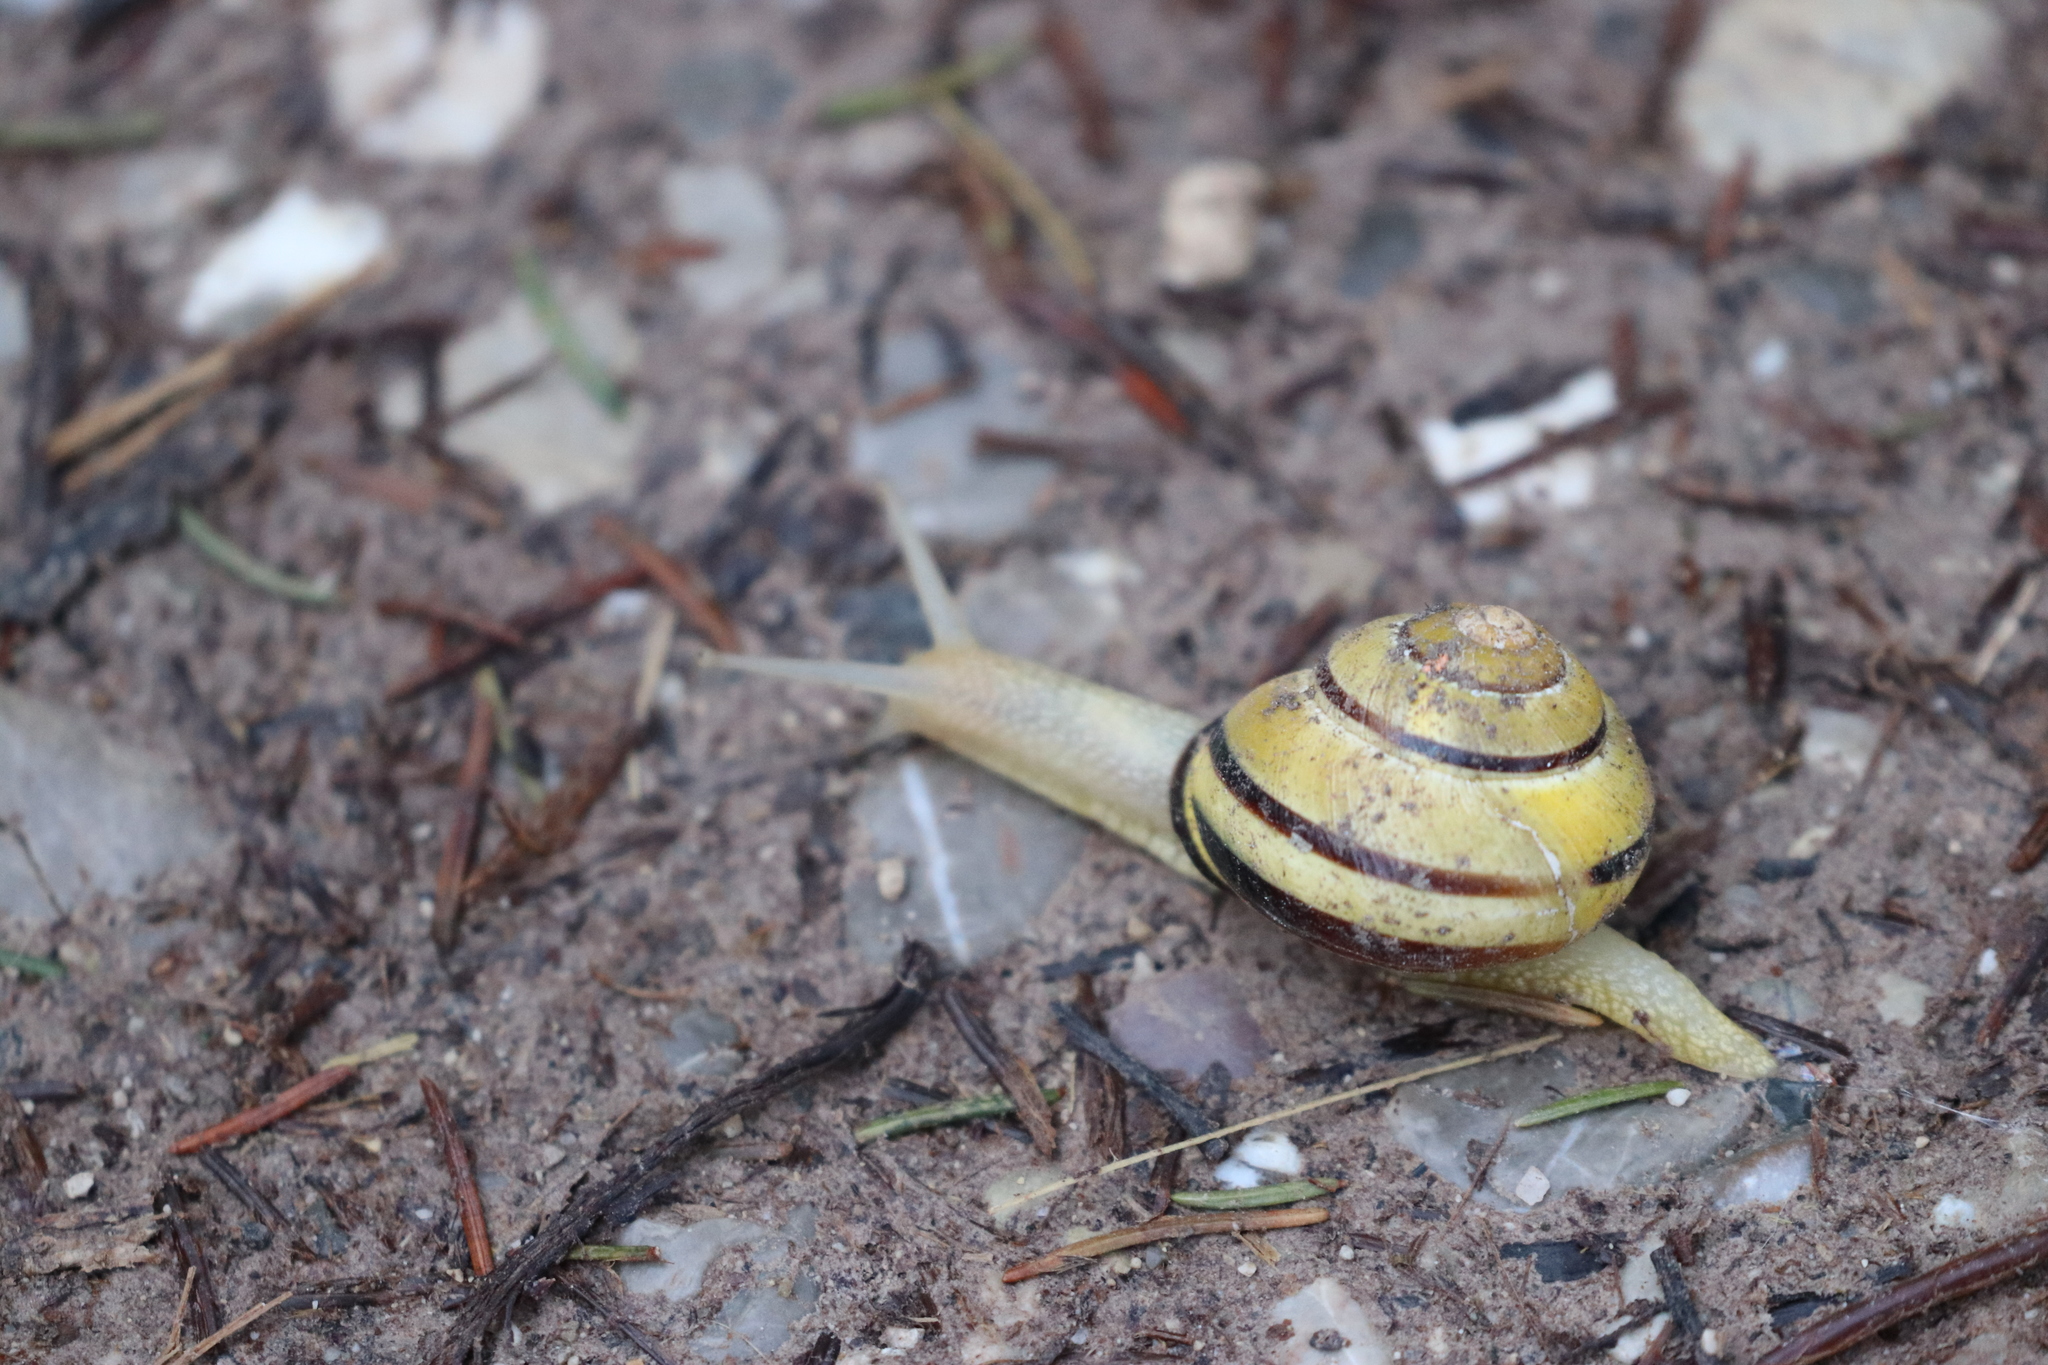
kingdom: Animalia
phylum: Mollusca
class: Gastropoda
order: Stylommatophora
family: Helicidae
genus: Cepaea
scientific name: Cepaea nemoralis
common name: Grovesnail
